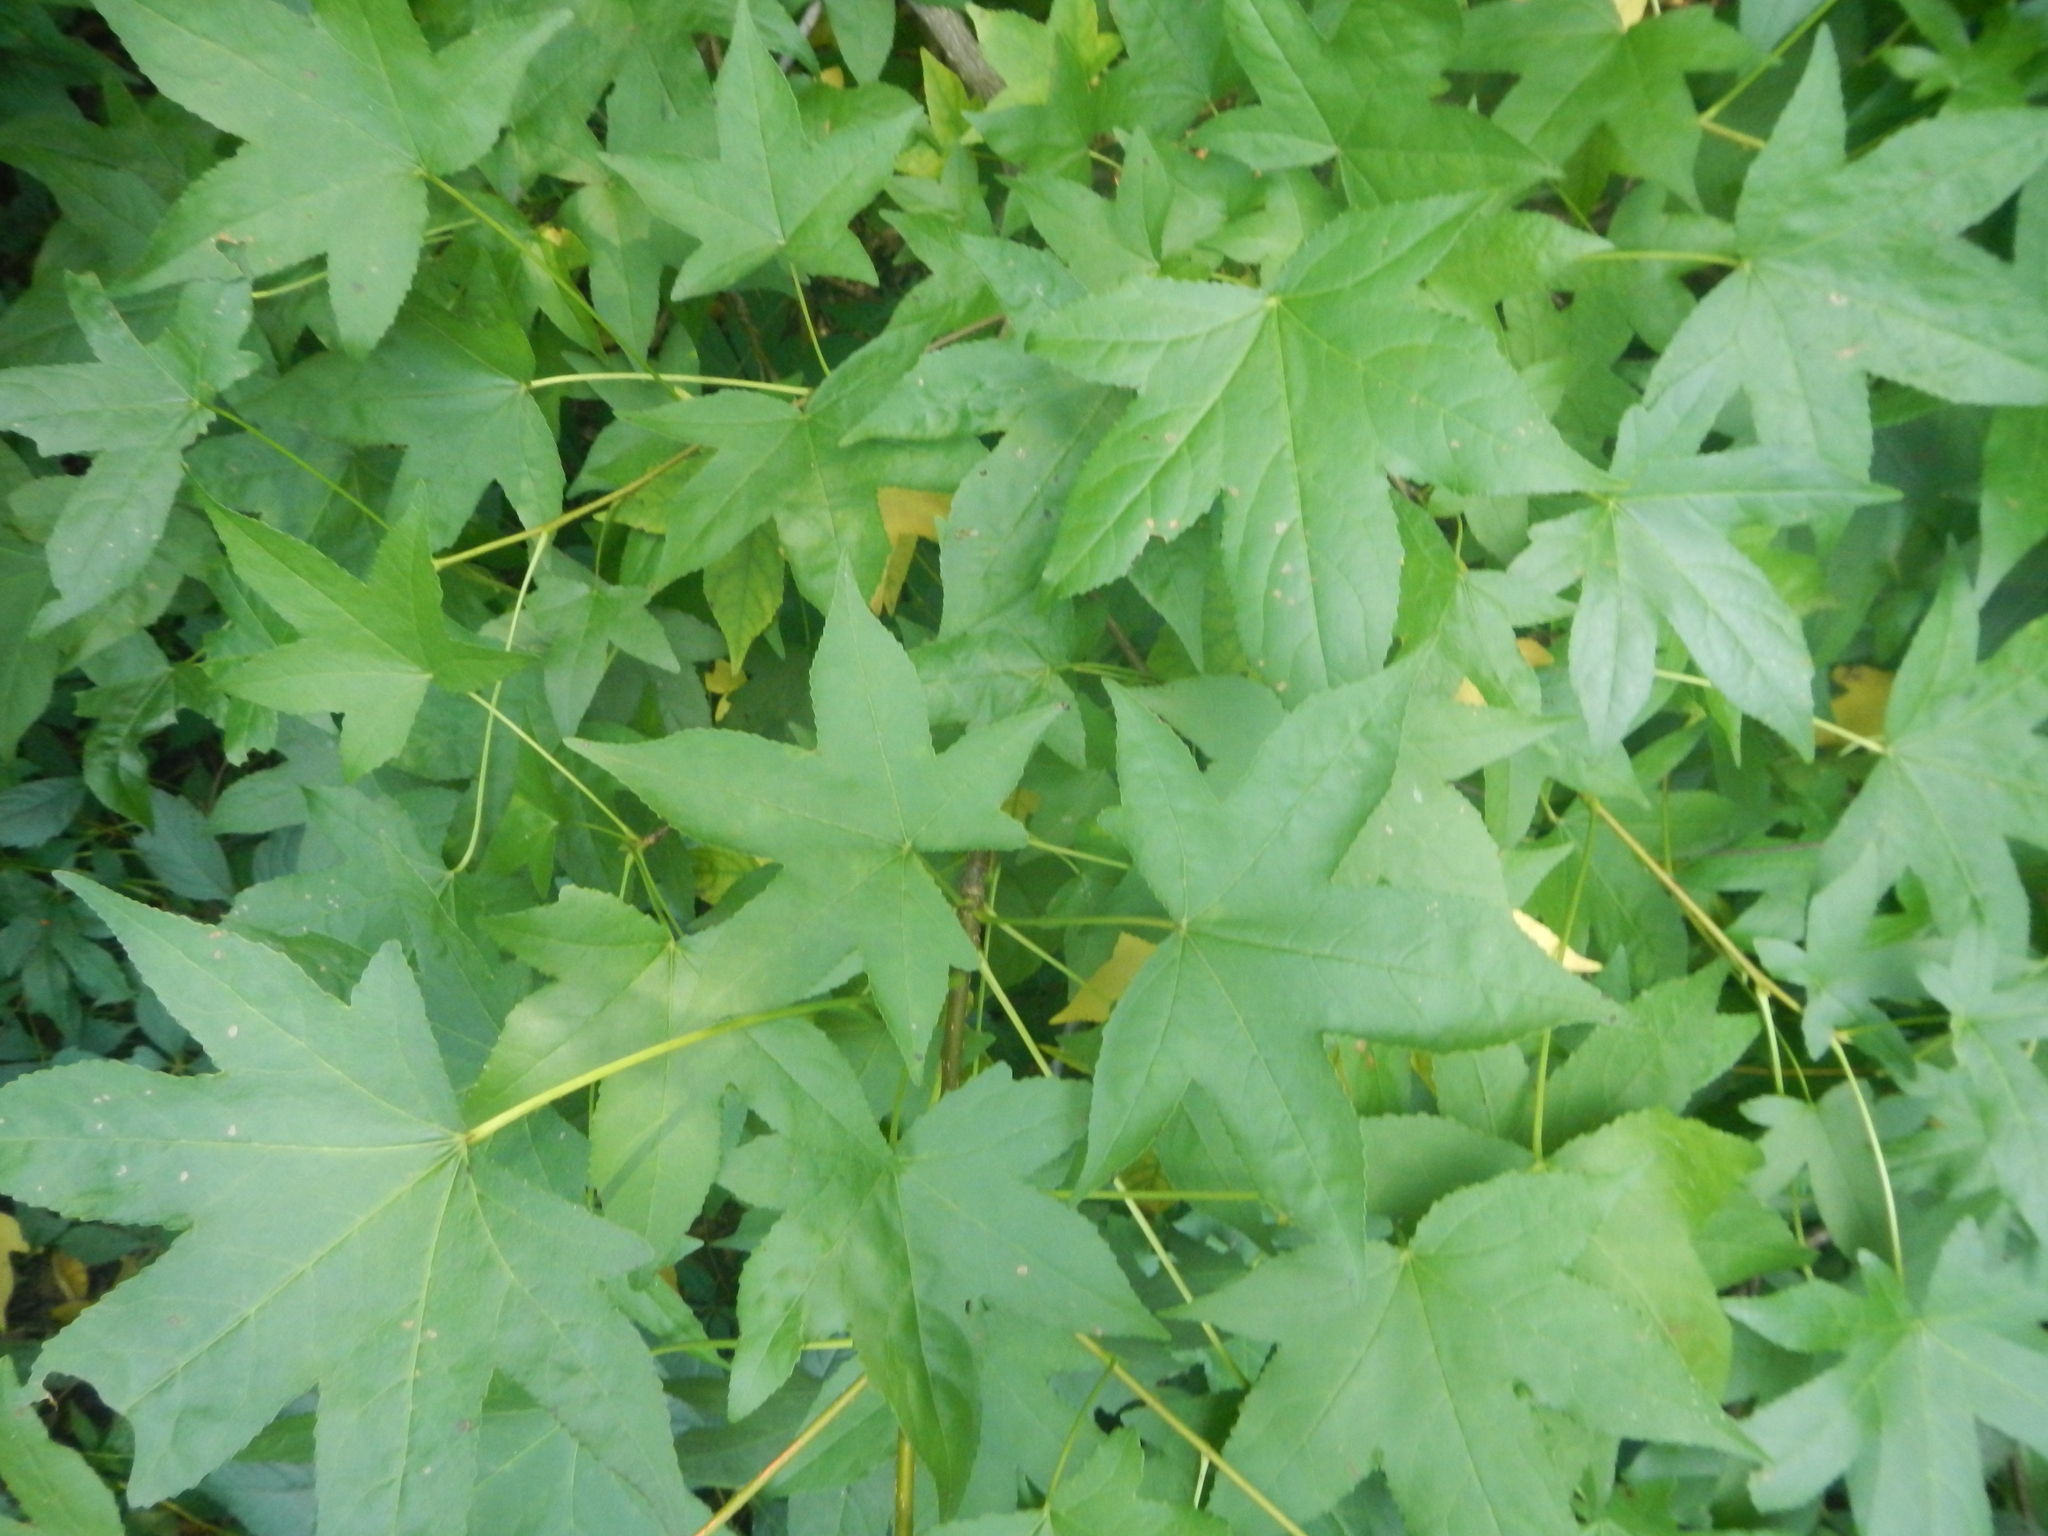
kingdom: Plantae
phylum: Tracheophyta
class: Magnoliopsida
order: Saxifragales
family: Altingiaceae
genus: Liquidambar
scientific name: Liquidambar styraciflua
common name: Sweet gum
